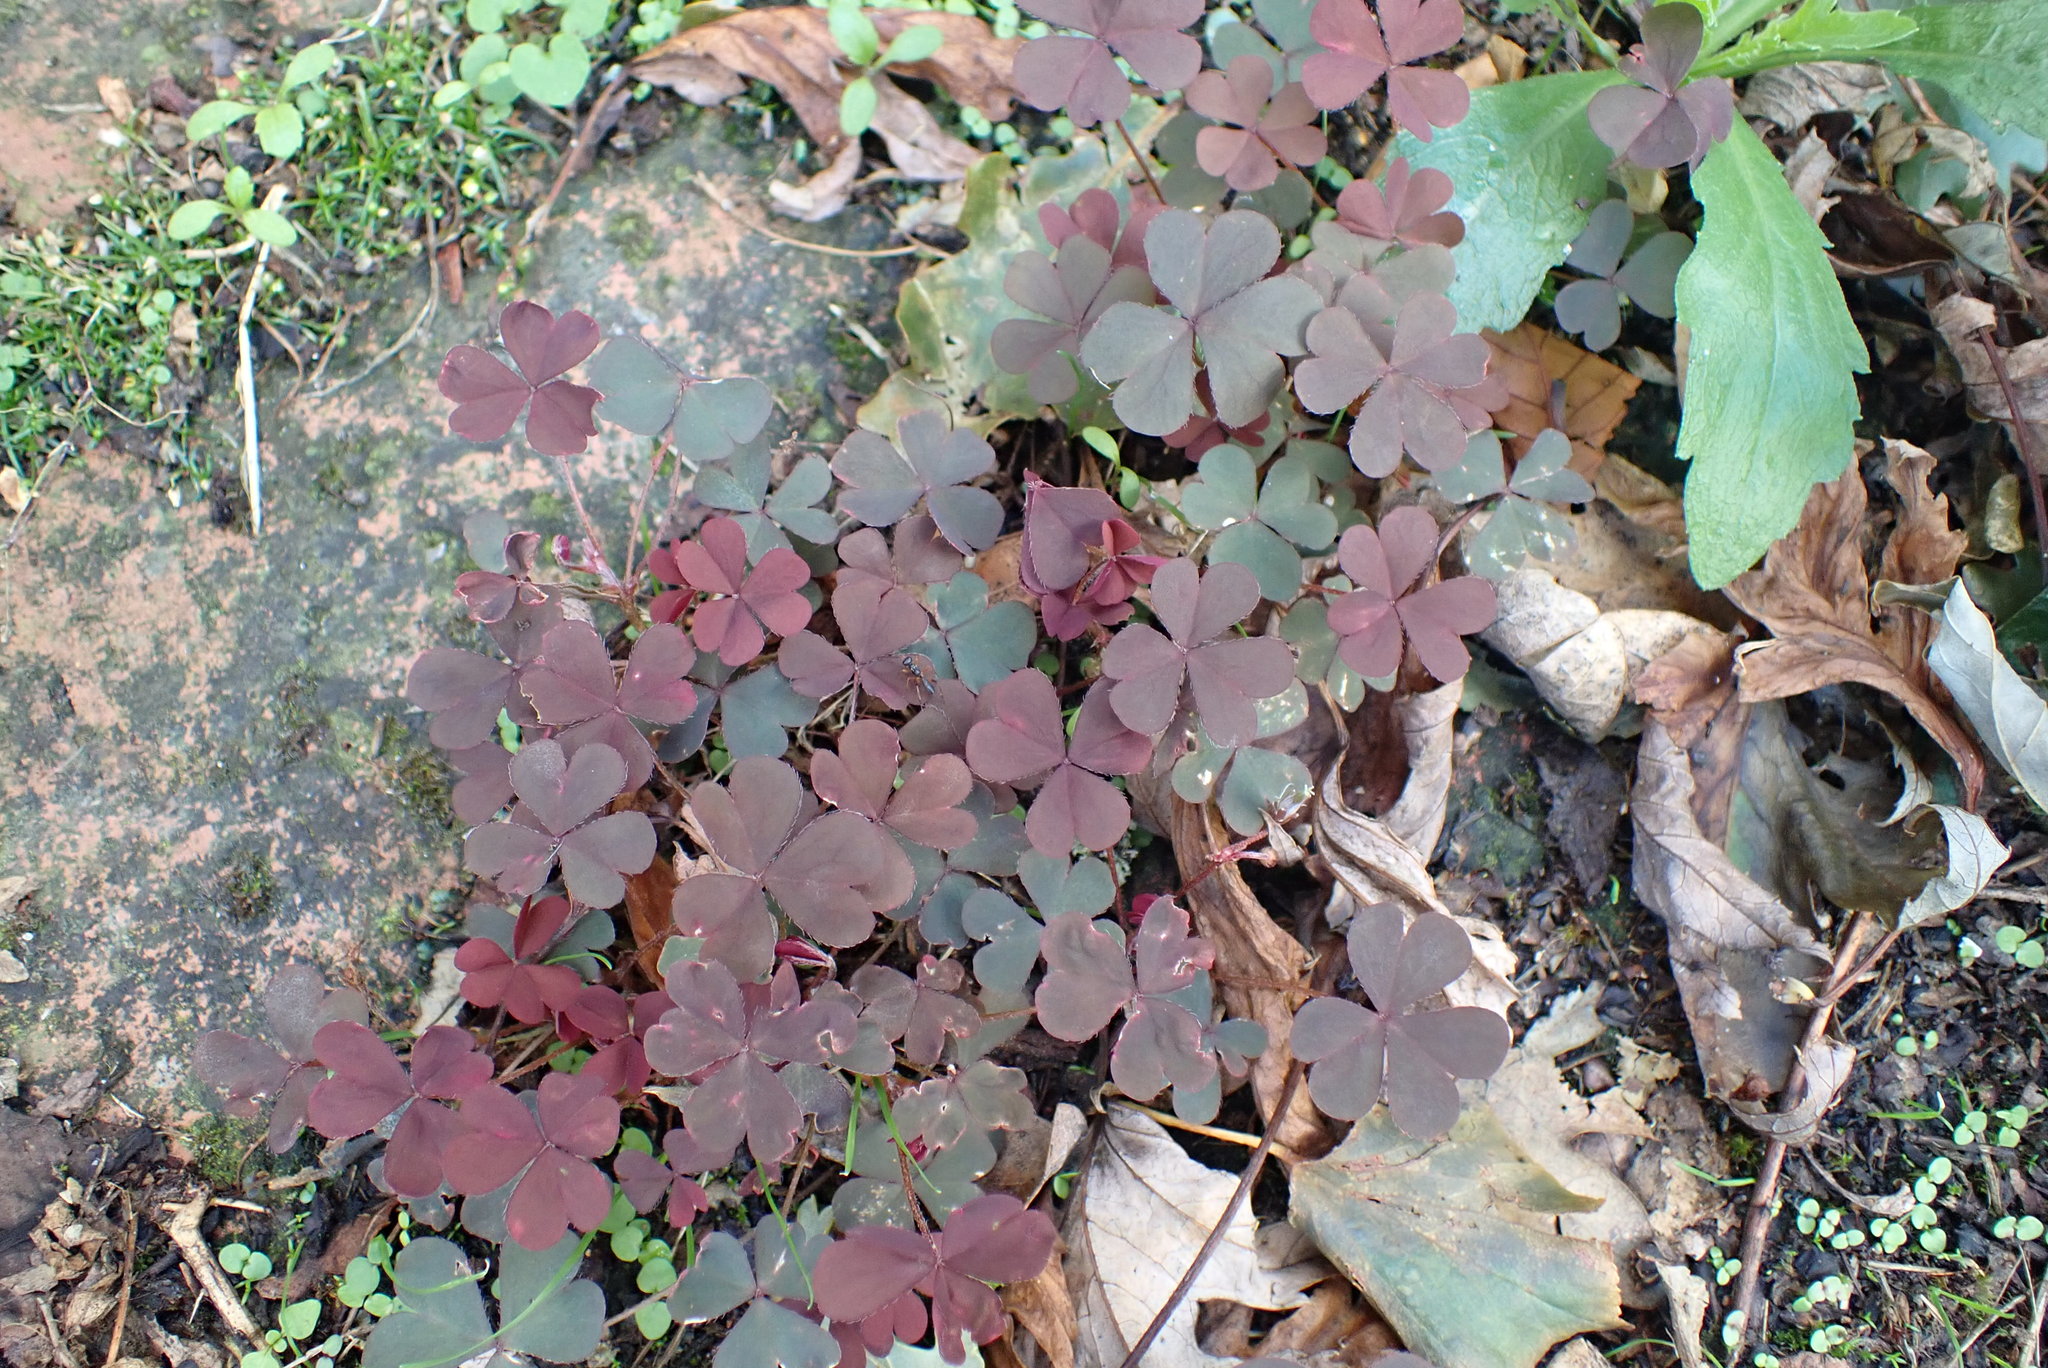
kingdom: Plantae
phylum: Tracheophyta
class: Magnoliopsida
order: Oxalidales
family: Oxalidaceae
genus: Oxalis
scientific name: Oxalis corniculata
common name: Procumbent yellow-sorrel
